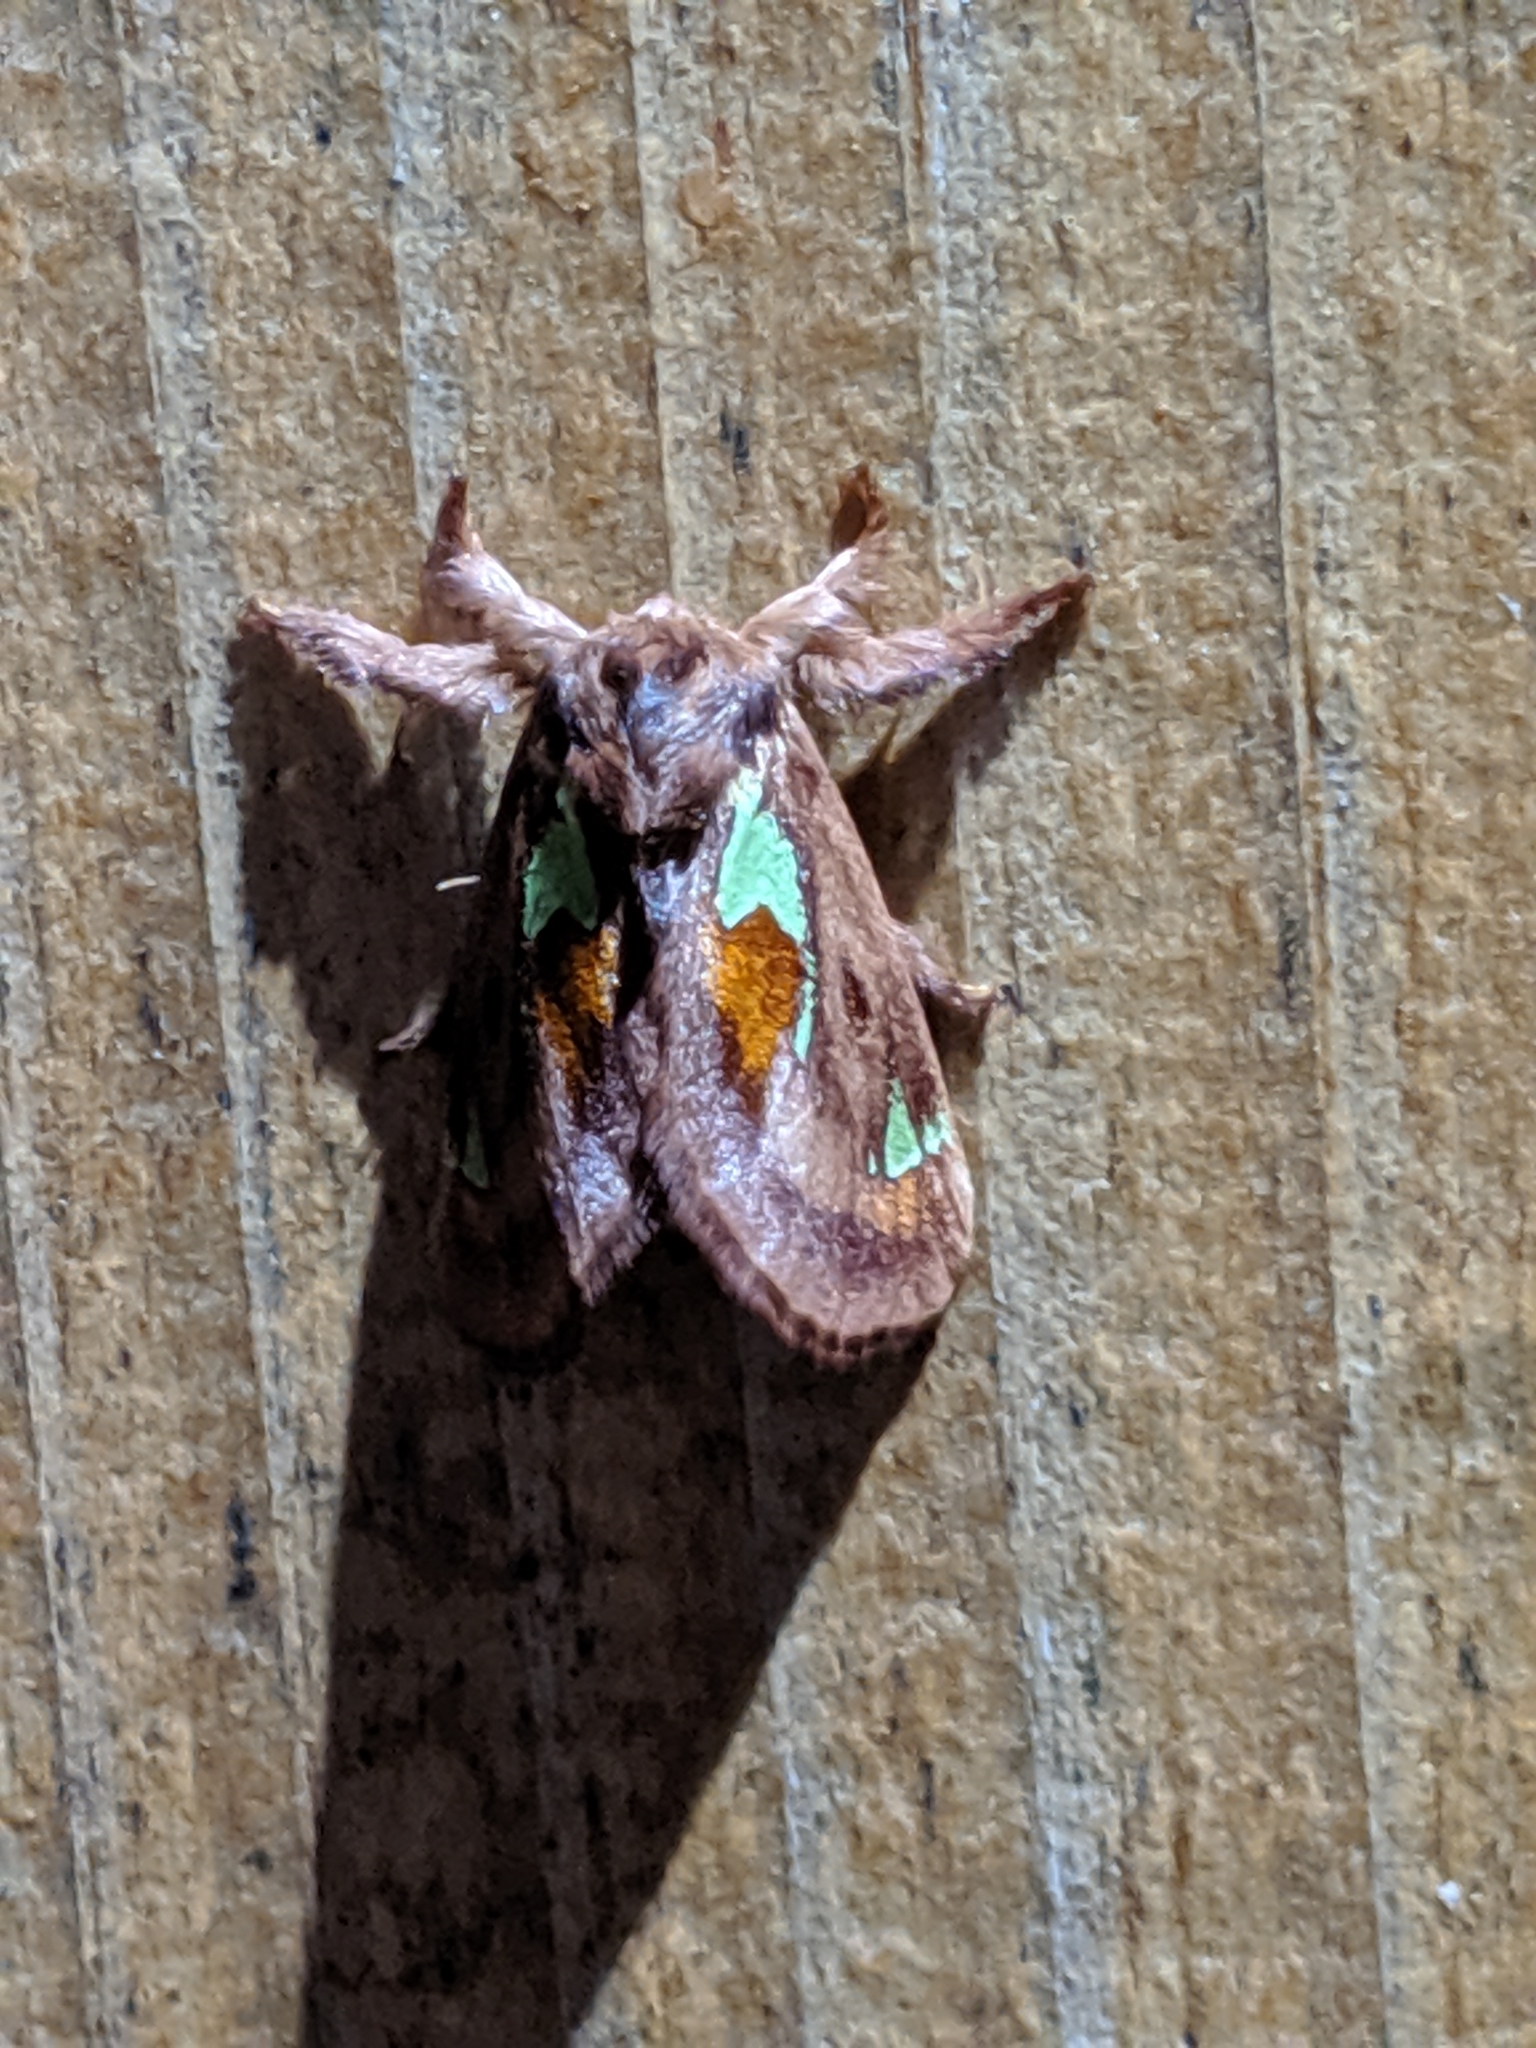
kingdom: Animalia
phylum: Arthropoda
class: Insecta
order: Lepidoptera
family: Limacodidae
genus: Euclea
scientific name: Euclea delphinii
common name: Spiny oak-slug moth
